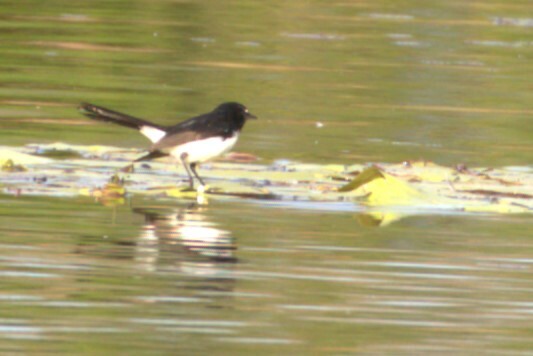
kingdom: Animalia
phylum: Chordata
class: Aves
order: Passeriformes
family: Rhipiduridae
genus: Rhipidura
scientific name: Rhipidura leucophrys
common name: Willie wagtail
